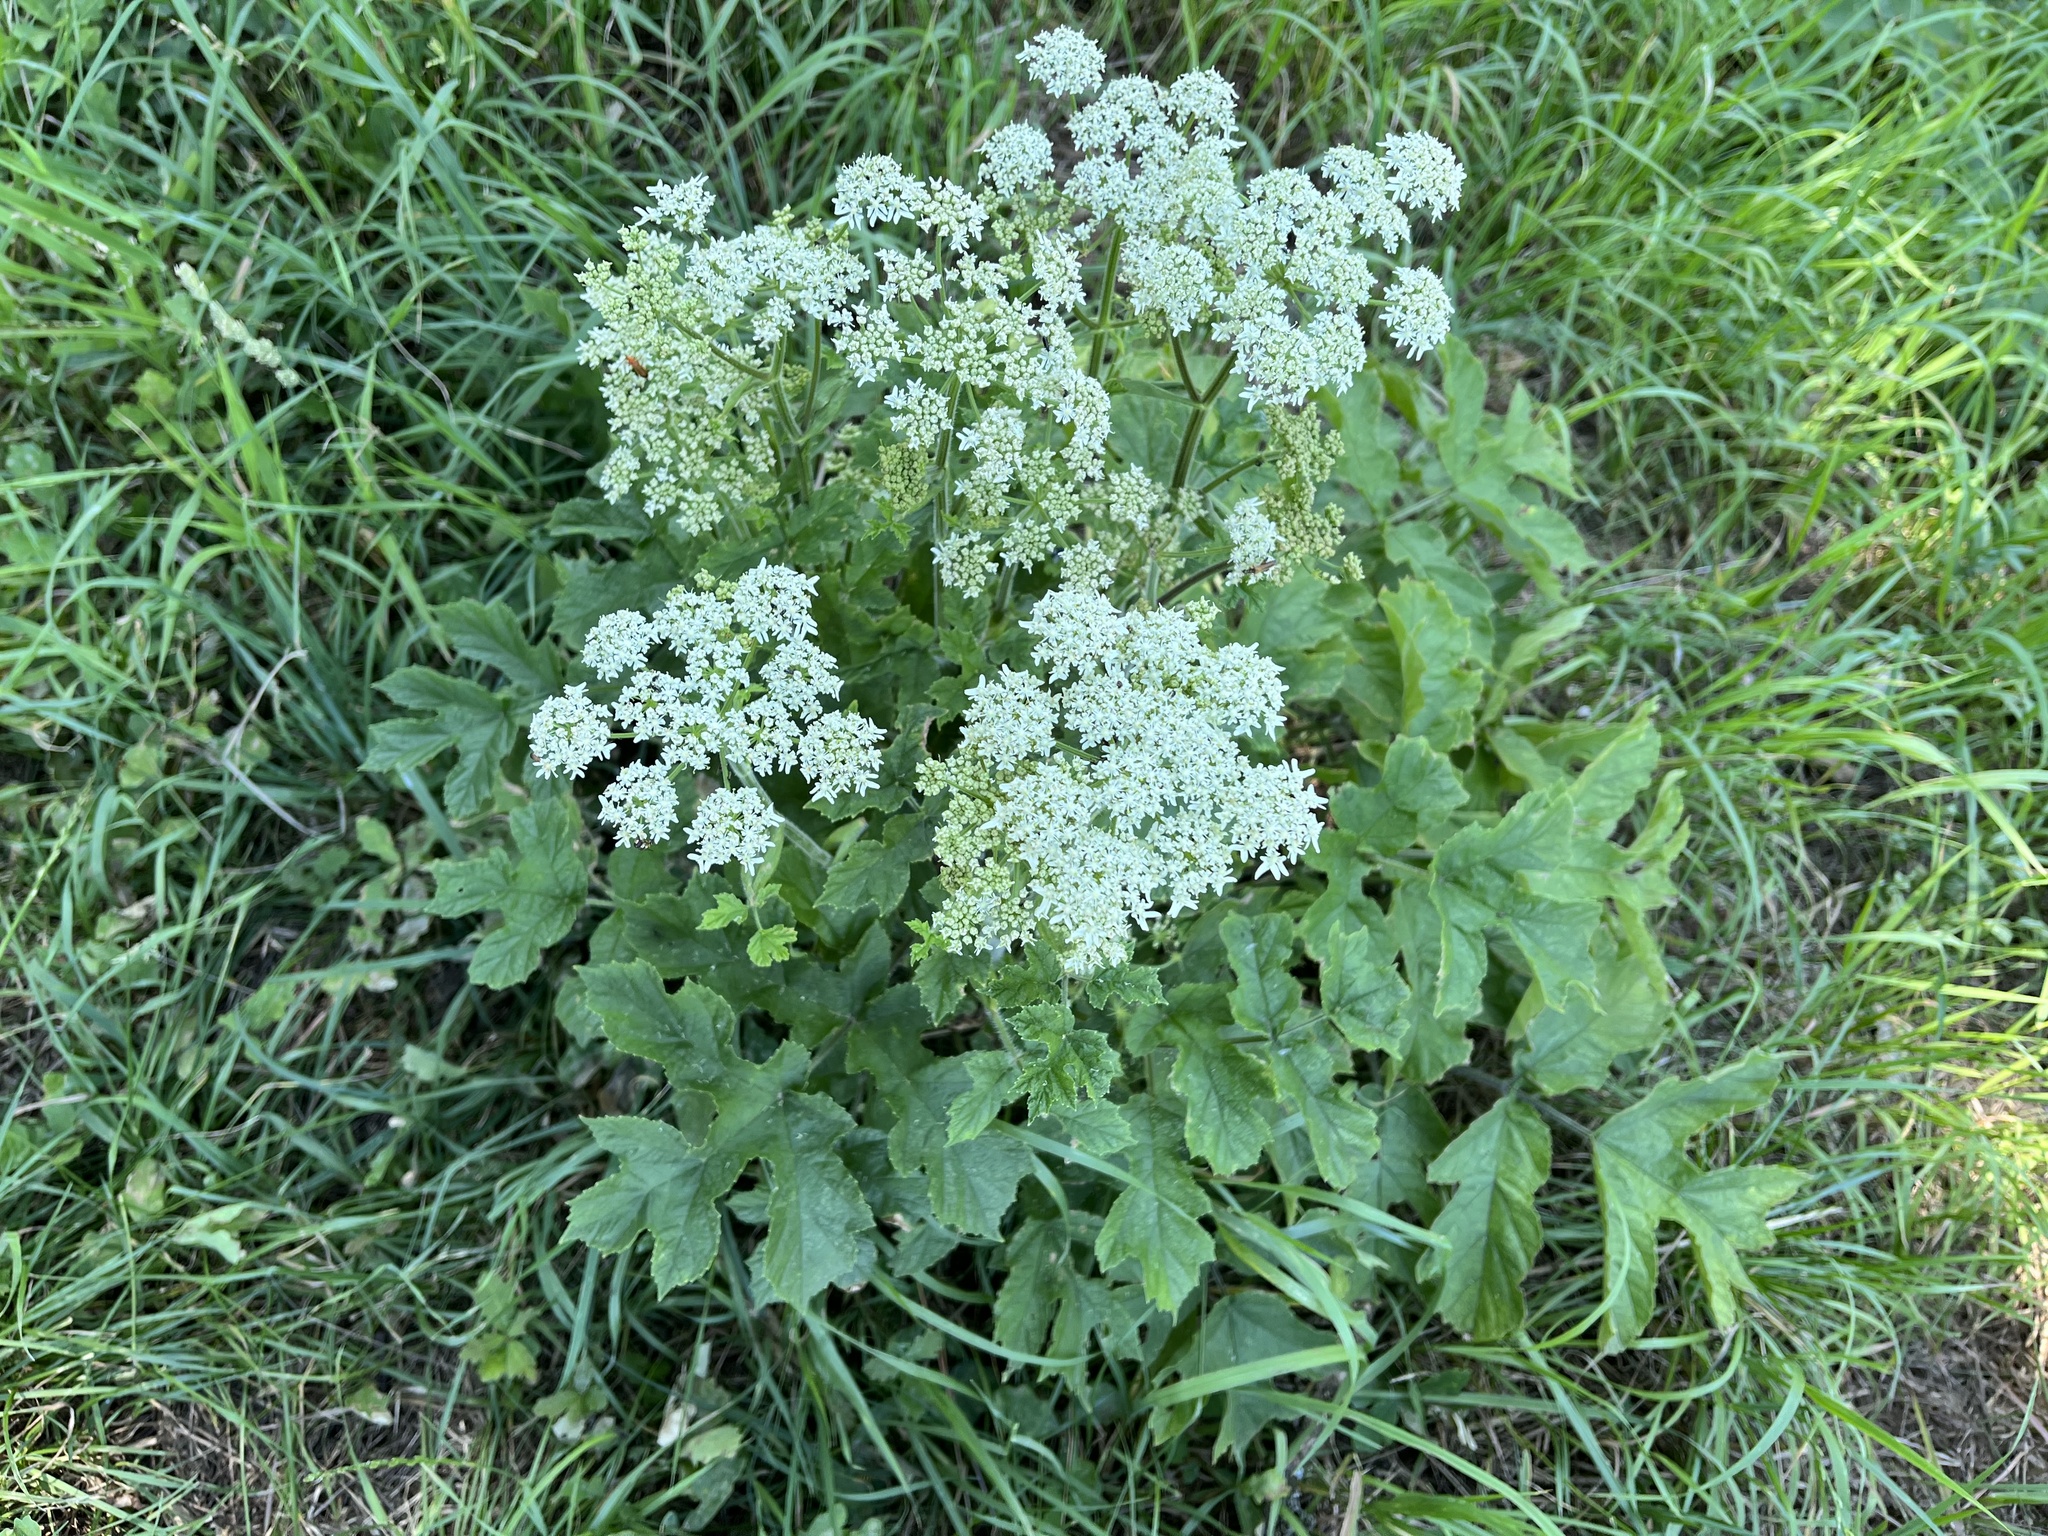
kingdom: Plantae
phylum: Tracheophyta
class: Magnoliopsida
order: Apiales
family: Apiaceae
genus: Heracleum
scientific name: Heracleum sphondylium
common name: Hogweed
